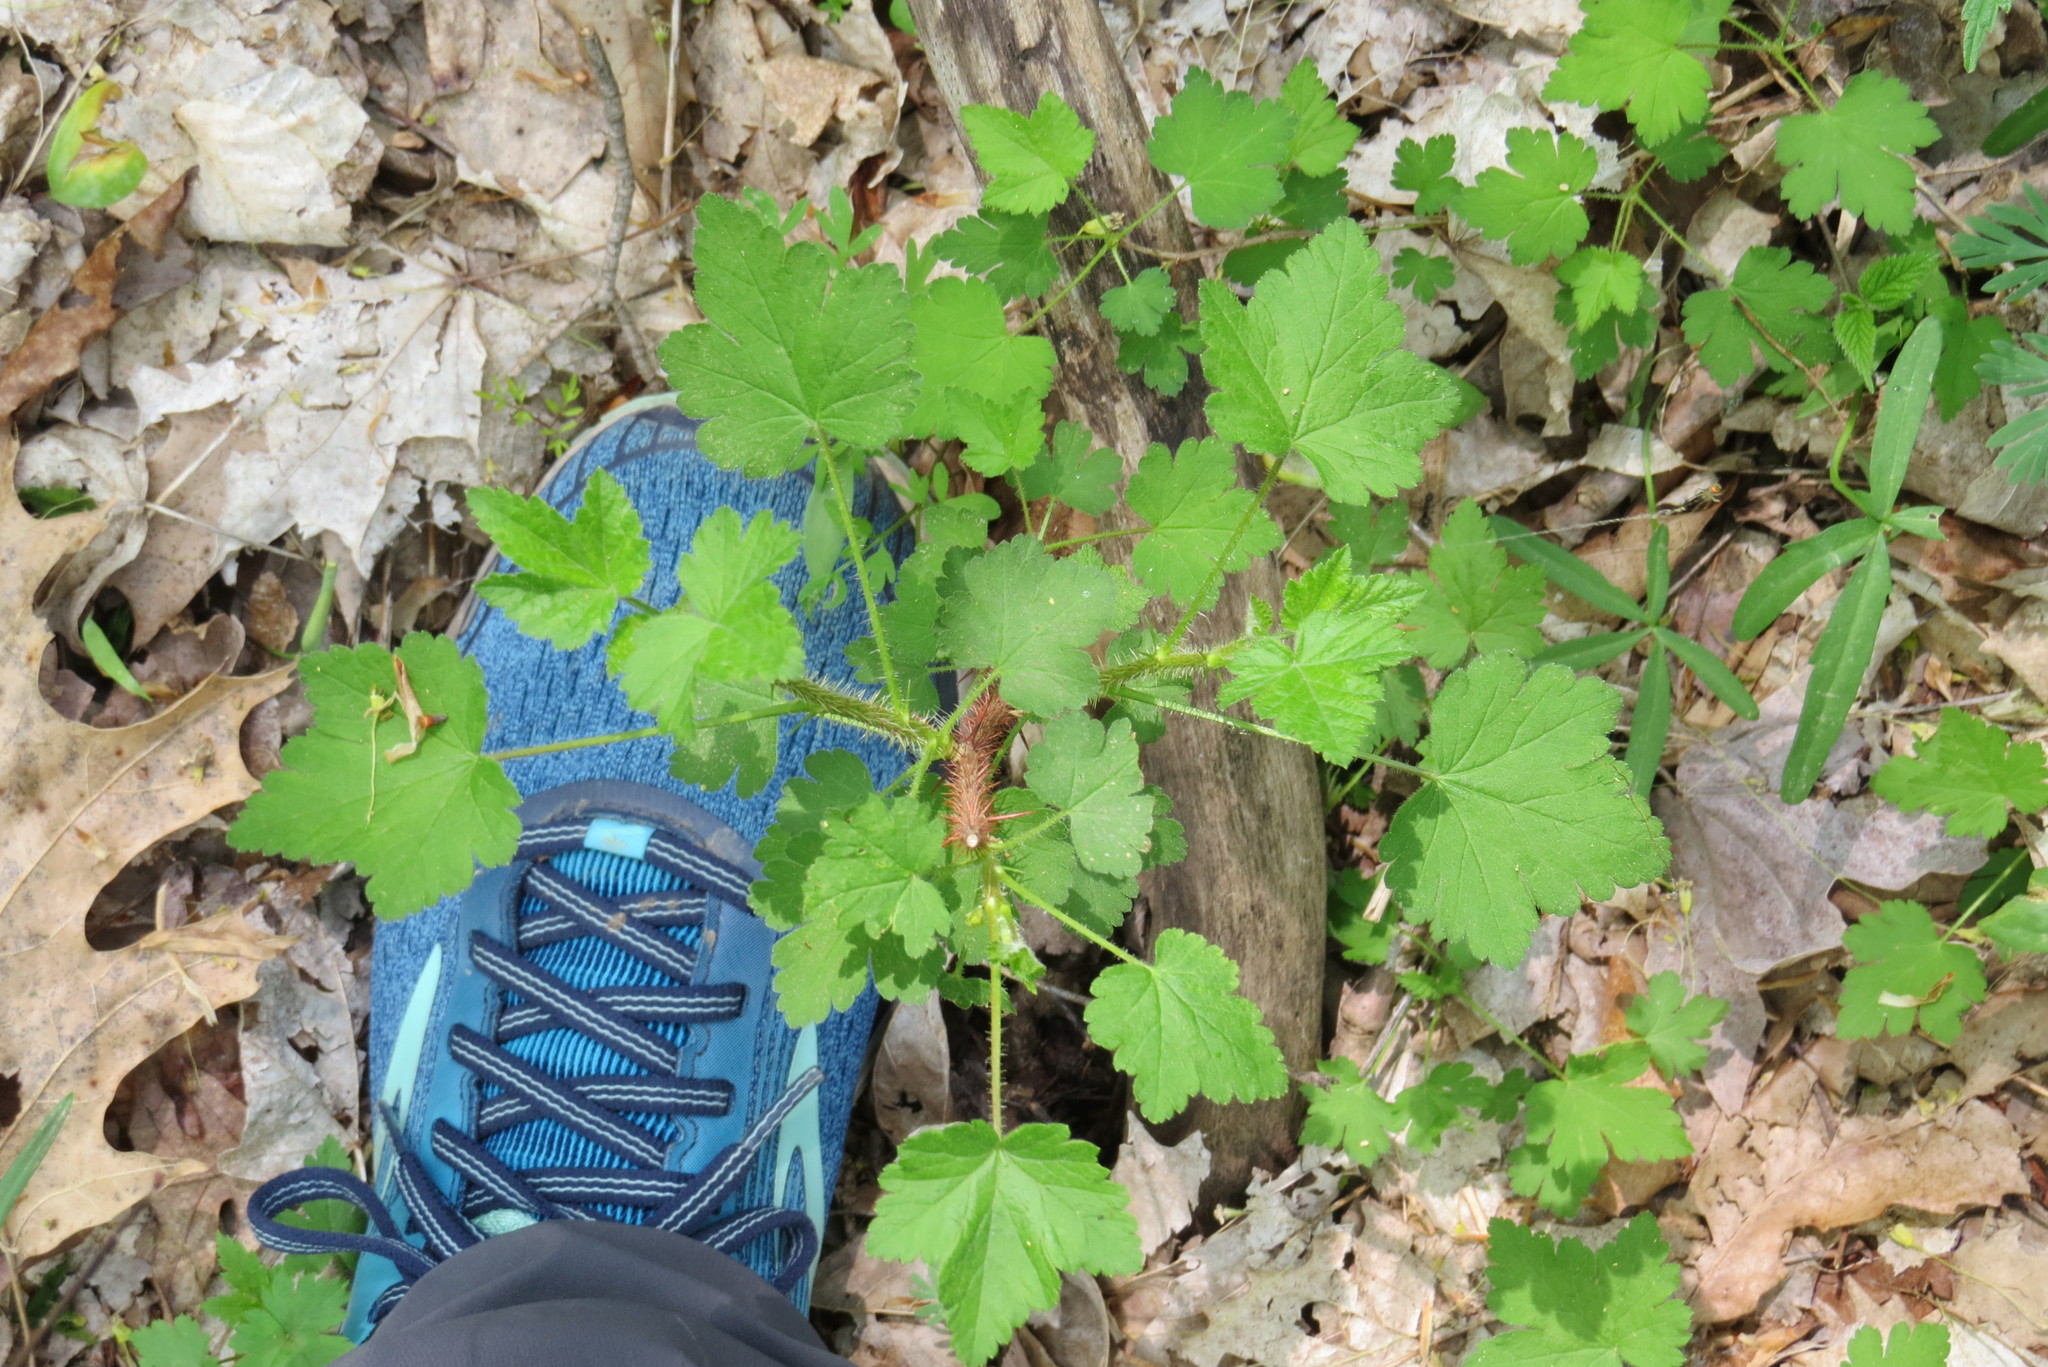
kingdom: Plantae
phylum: Tracheophyta
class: Magnoliopsida
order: Saxifragales
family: Grossulariaceae
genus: Ribes
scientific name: Ribes cynosbati
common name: American gooseberry
